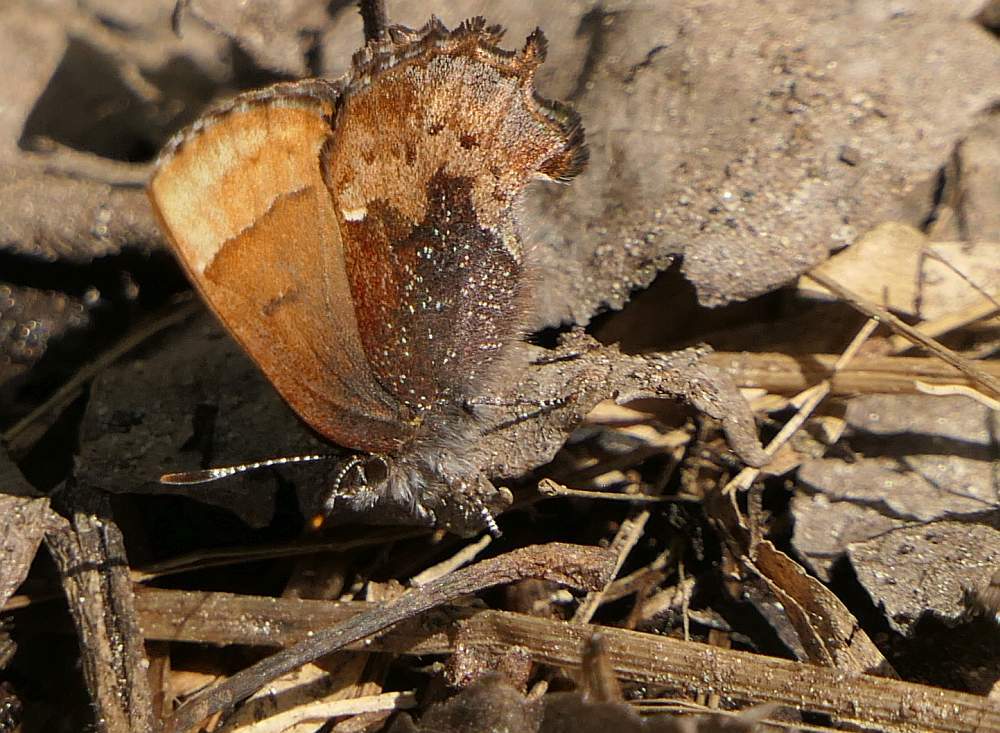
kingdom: Animalia
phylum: Arthropoda
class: Insecta
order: Lepidoptera
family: Lycaenidae
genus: Incisalia
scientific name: Incisalia henrici
